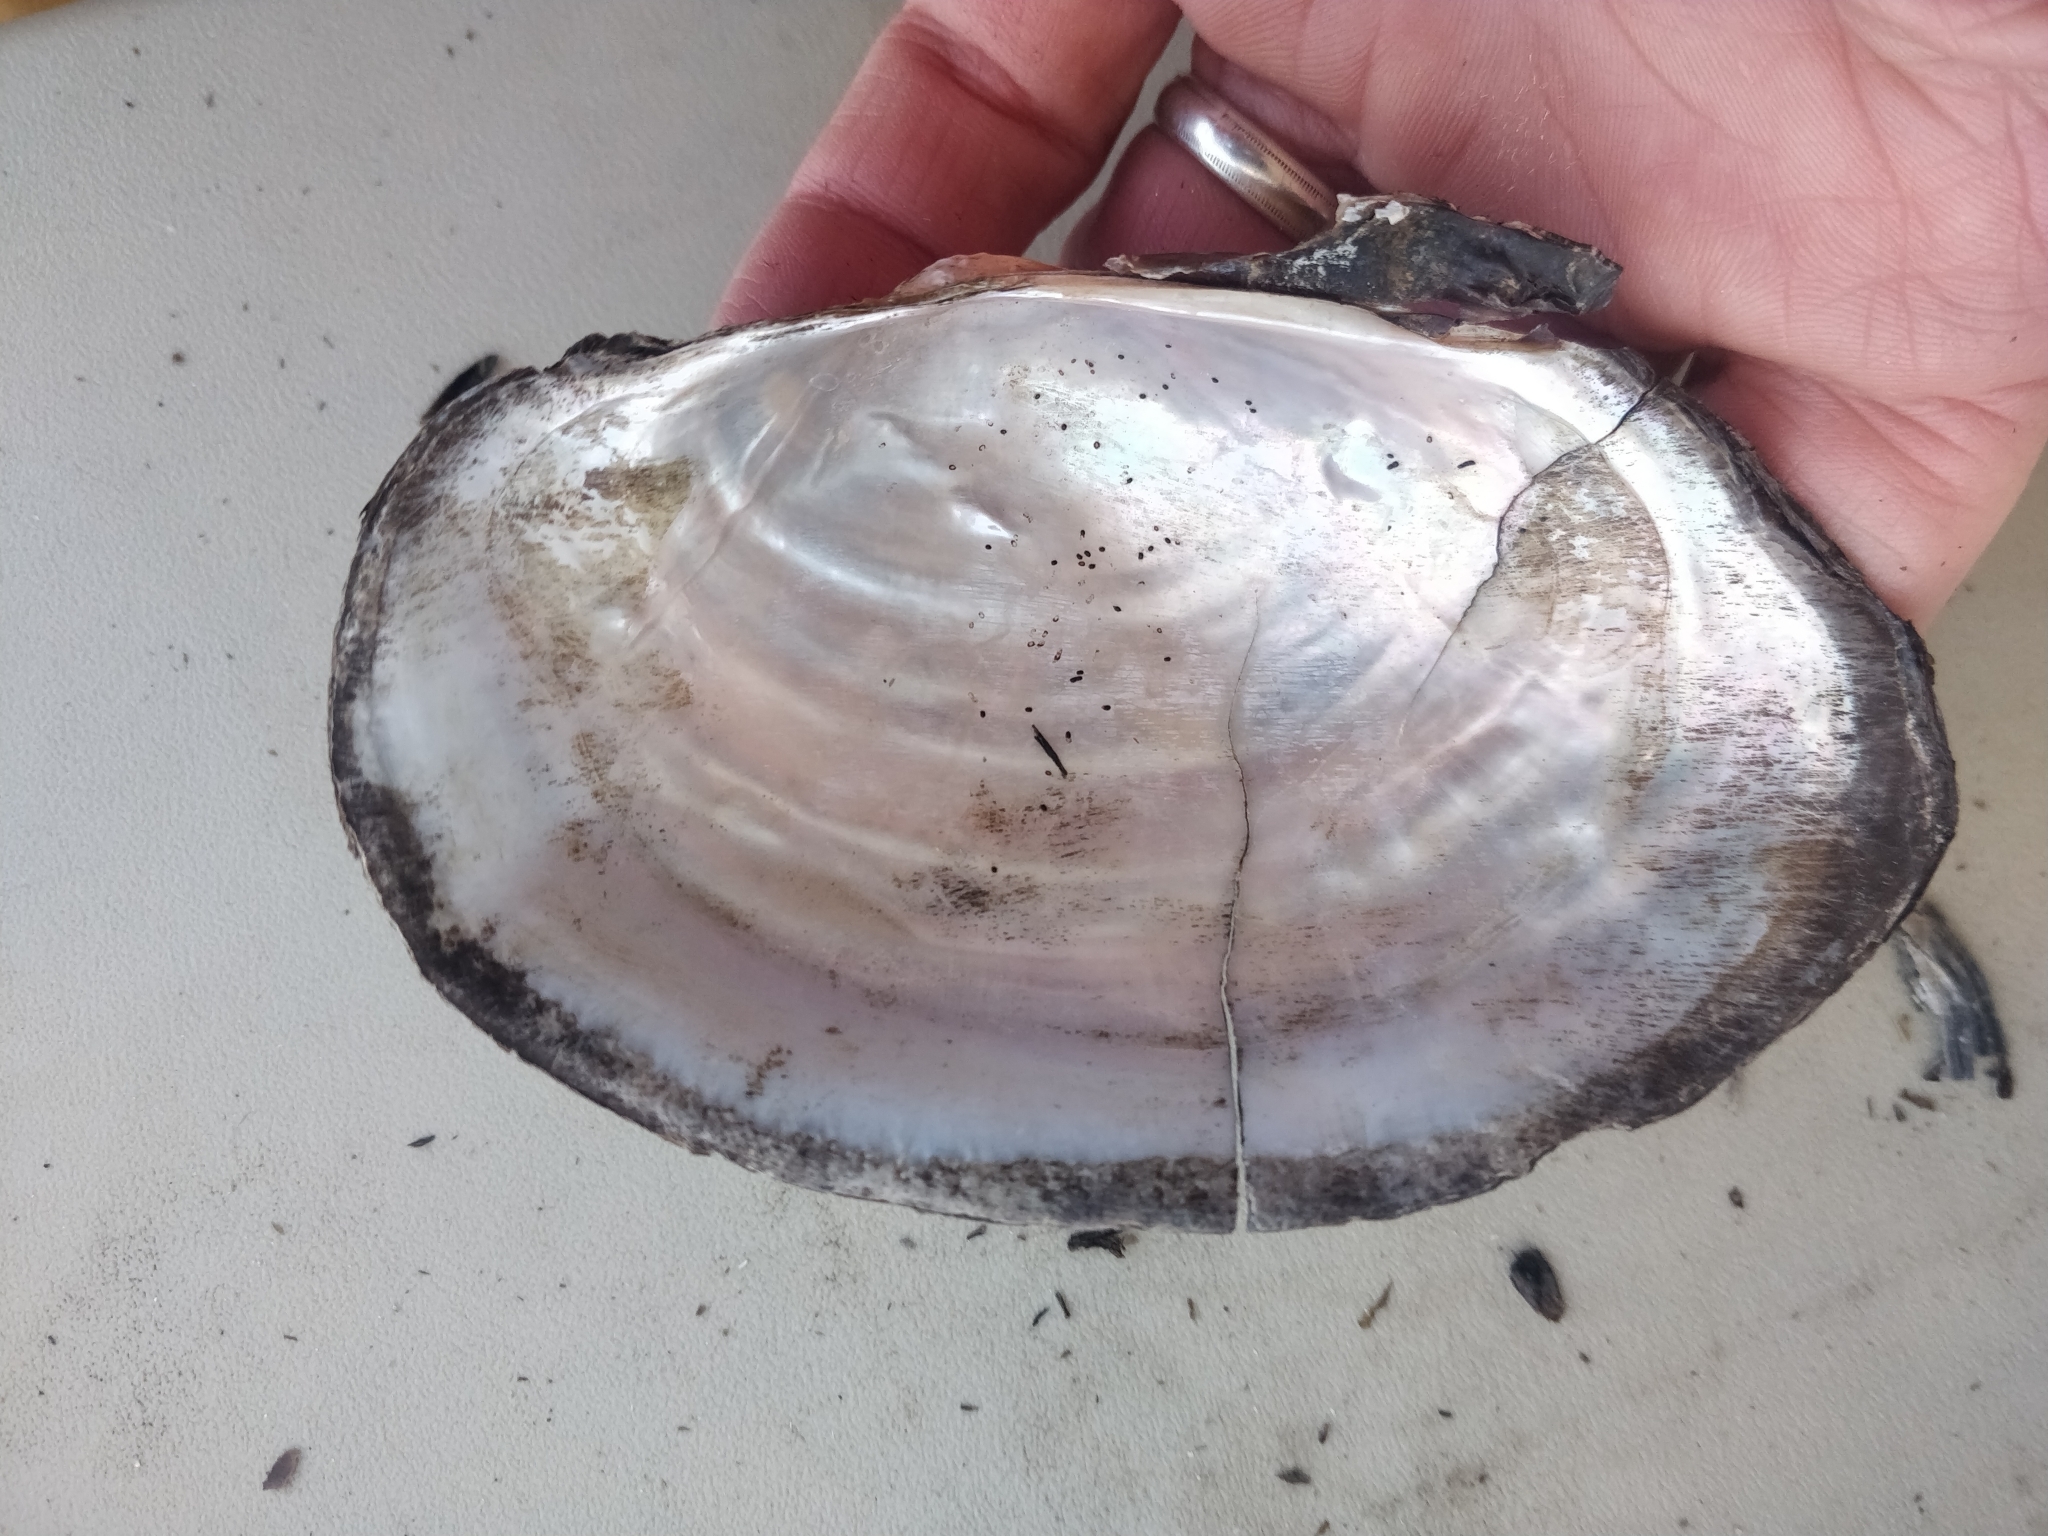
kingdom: Animalia
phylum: Mollusca
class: Bivalvia
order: Unionida
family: Unionidae
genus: Pyganodon
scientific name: Pyganodon grandis
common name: Giant floater
